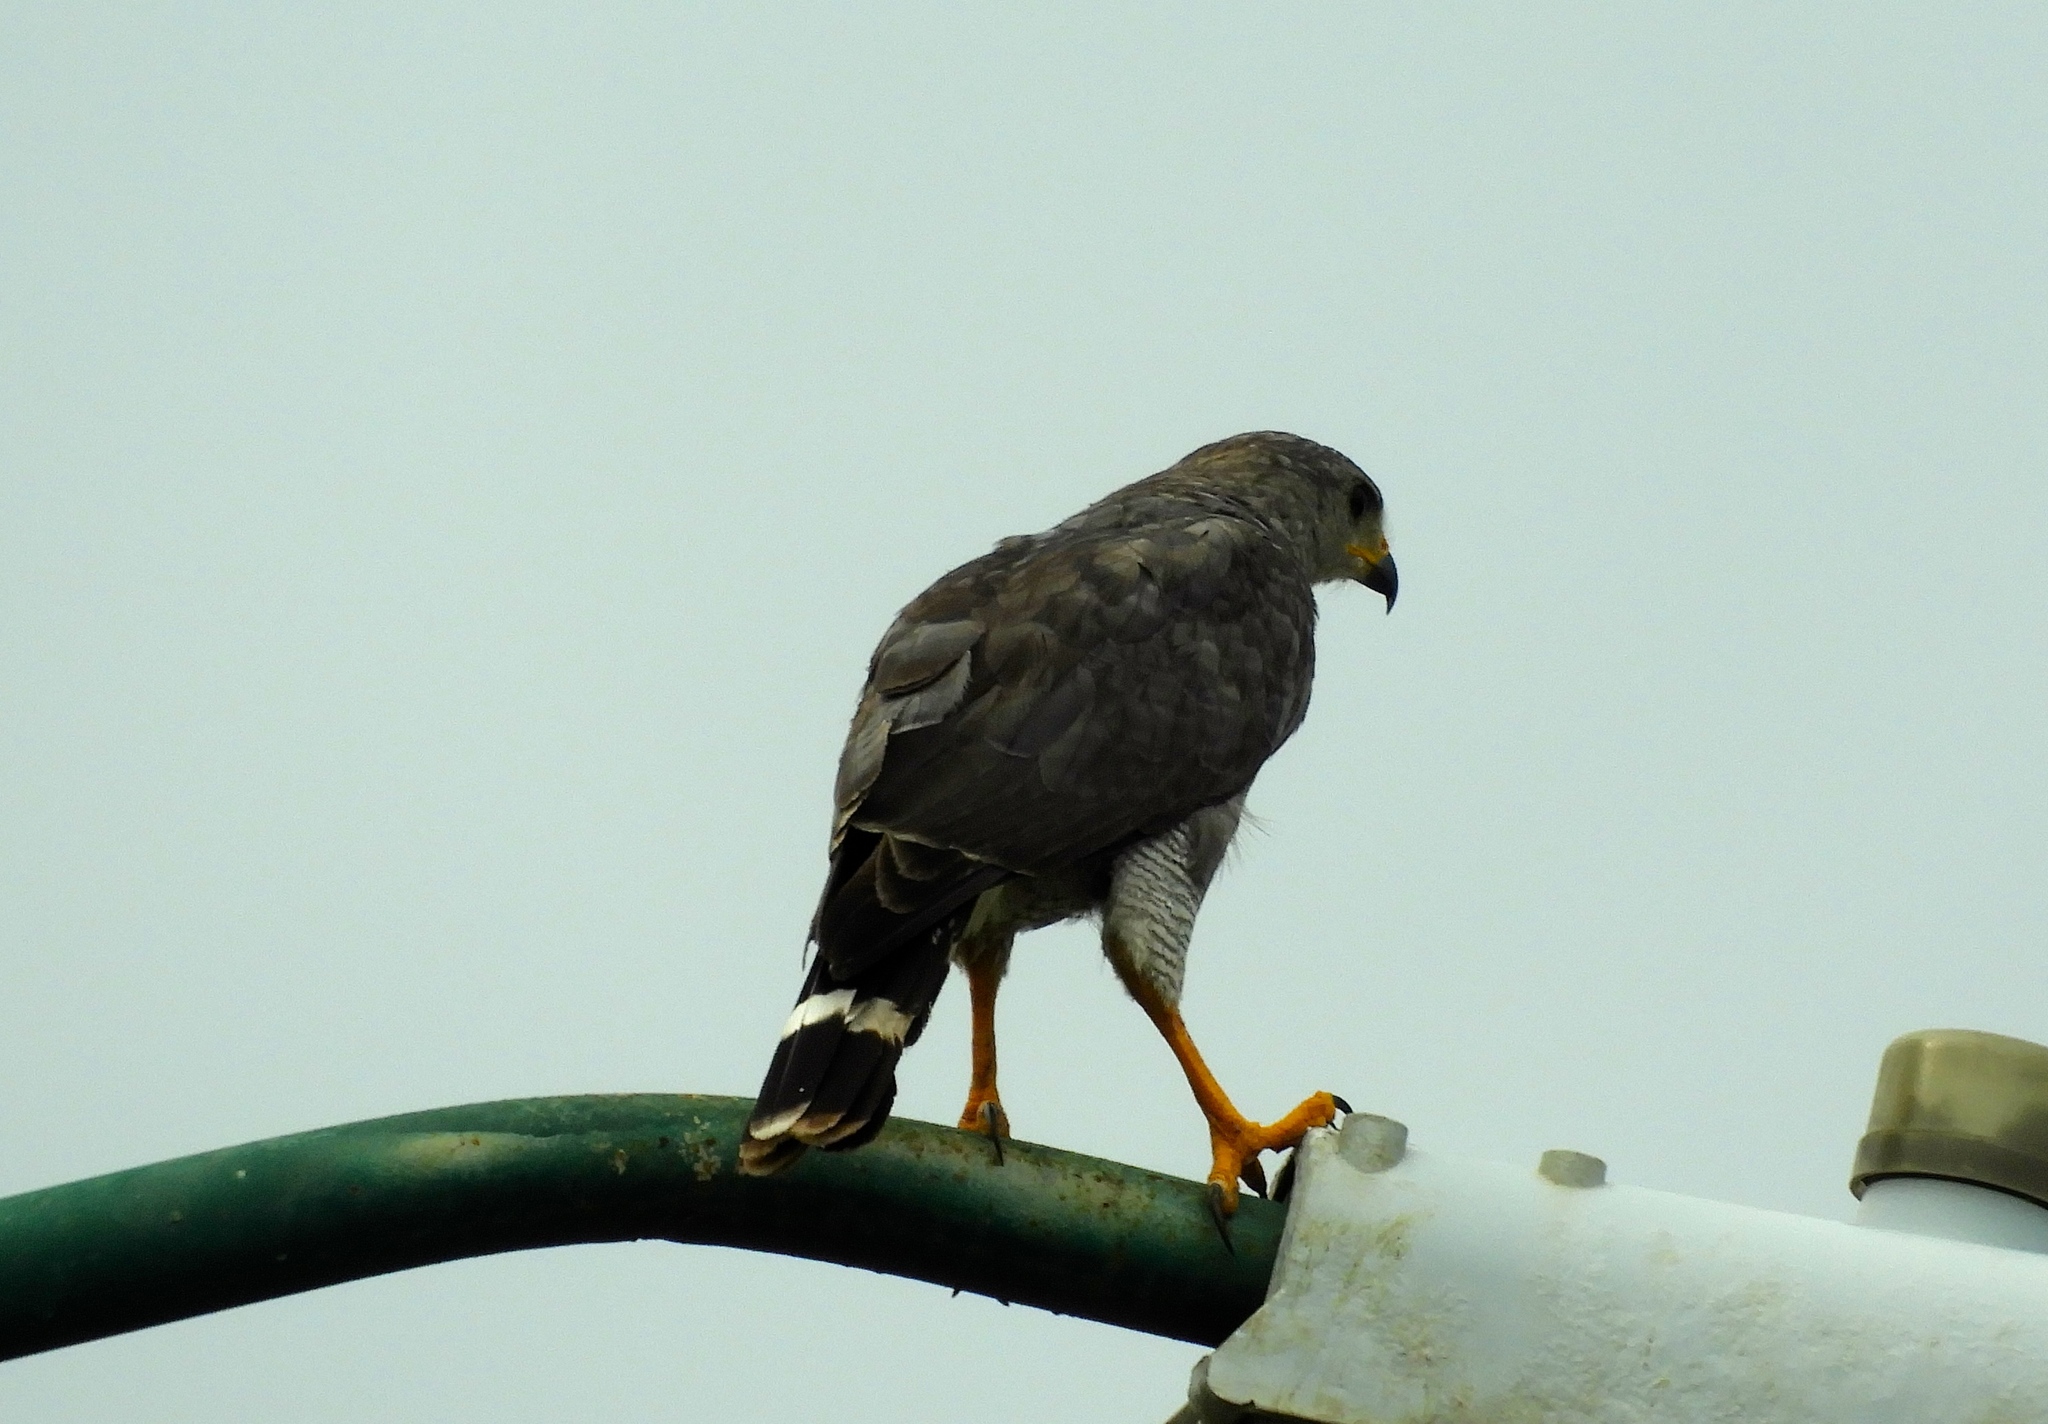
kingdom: Animalia
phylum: Chordata
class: Aves
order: Accipitriformes
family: Accipitridae
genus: Buteo
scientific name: Buteo nitidus
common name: Grey-lined hawk
